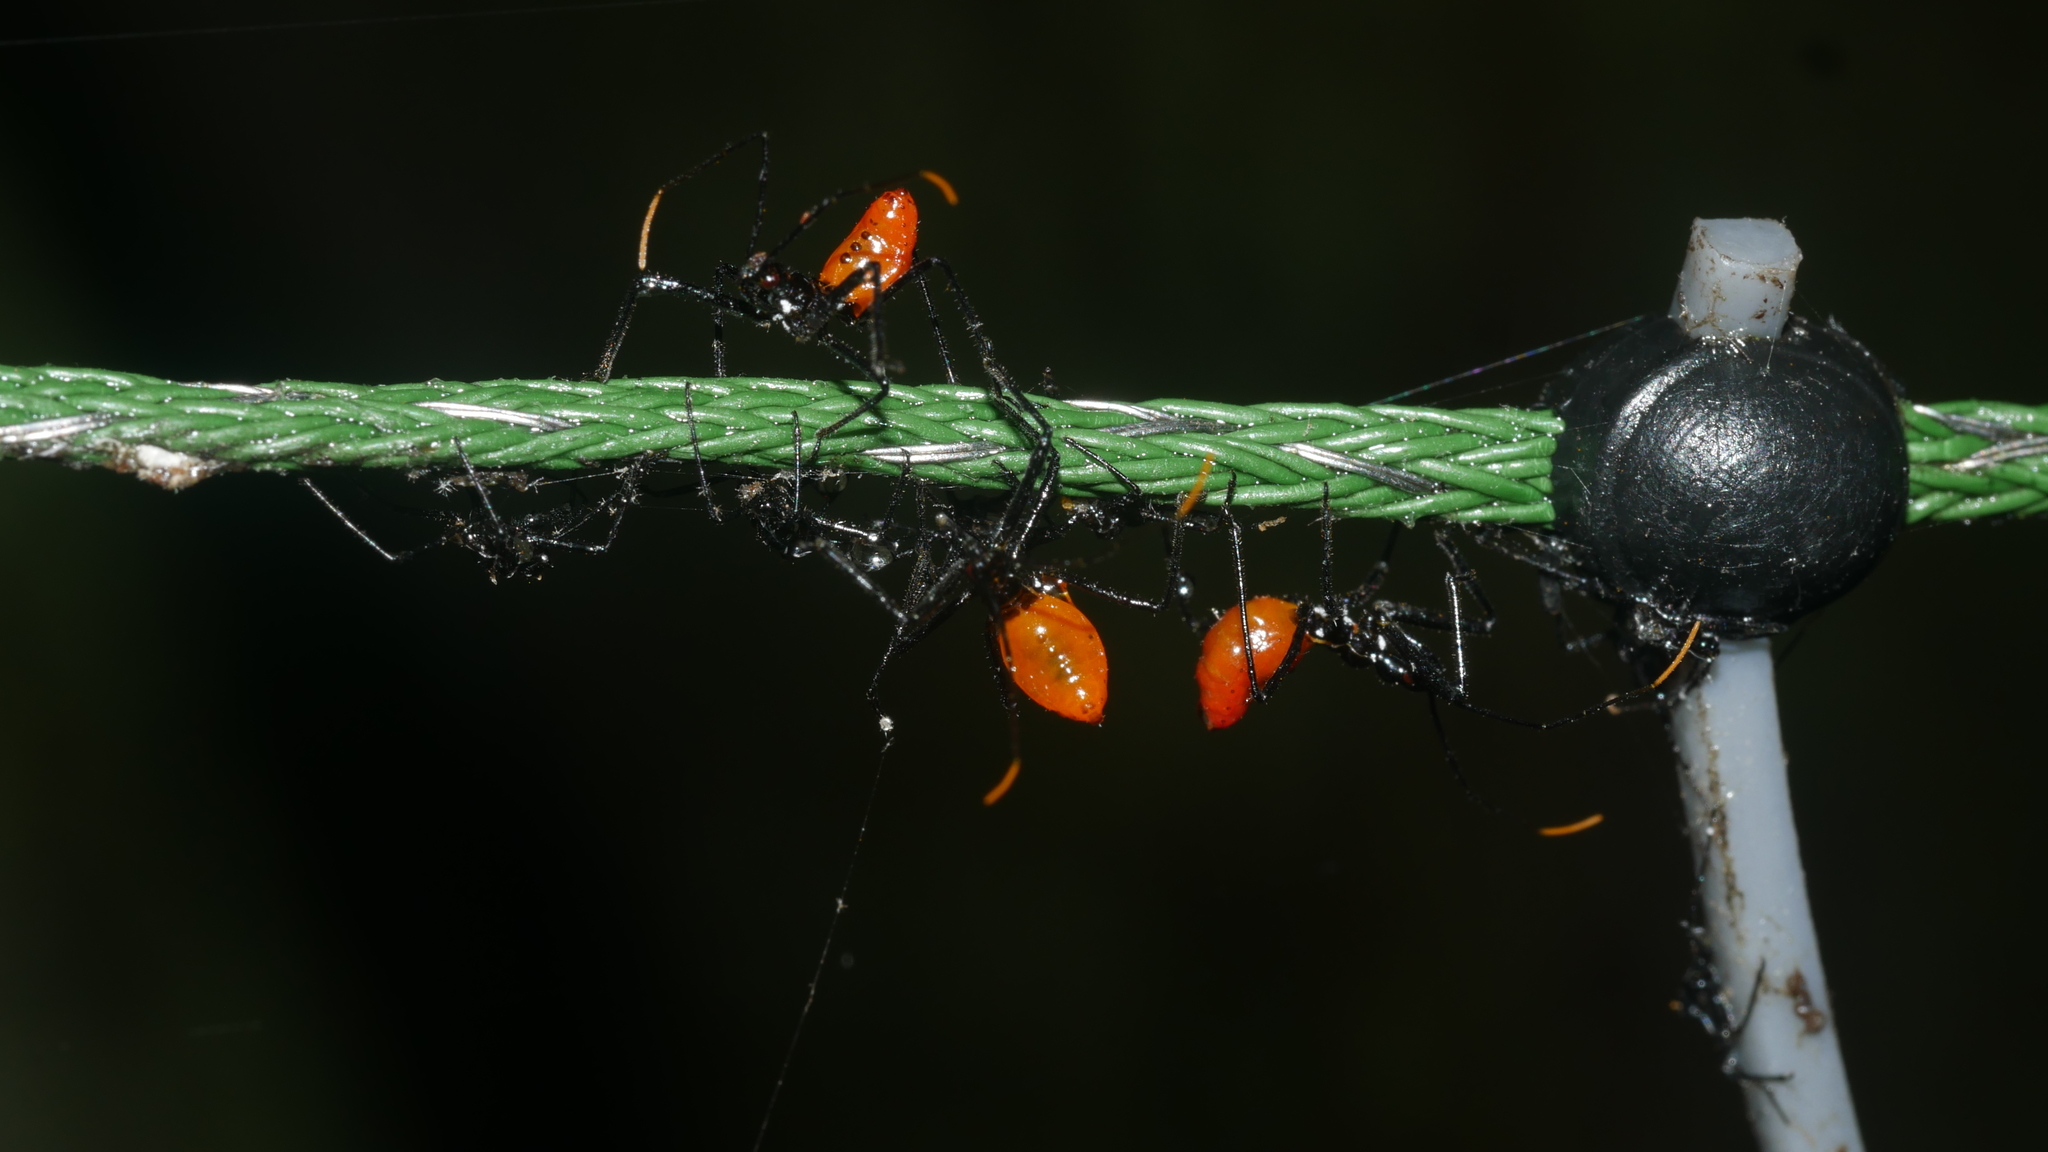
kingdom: Animalia
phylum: Arthropoda
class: Insecta
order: Hemiptera
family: Reduviidae
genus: Arilus
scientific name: Arilus cristatus
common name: North american wheel bug
